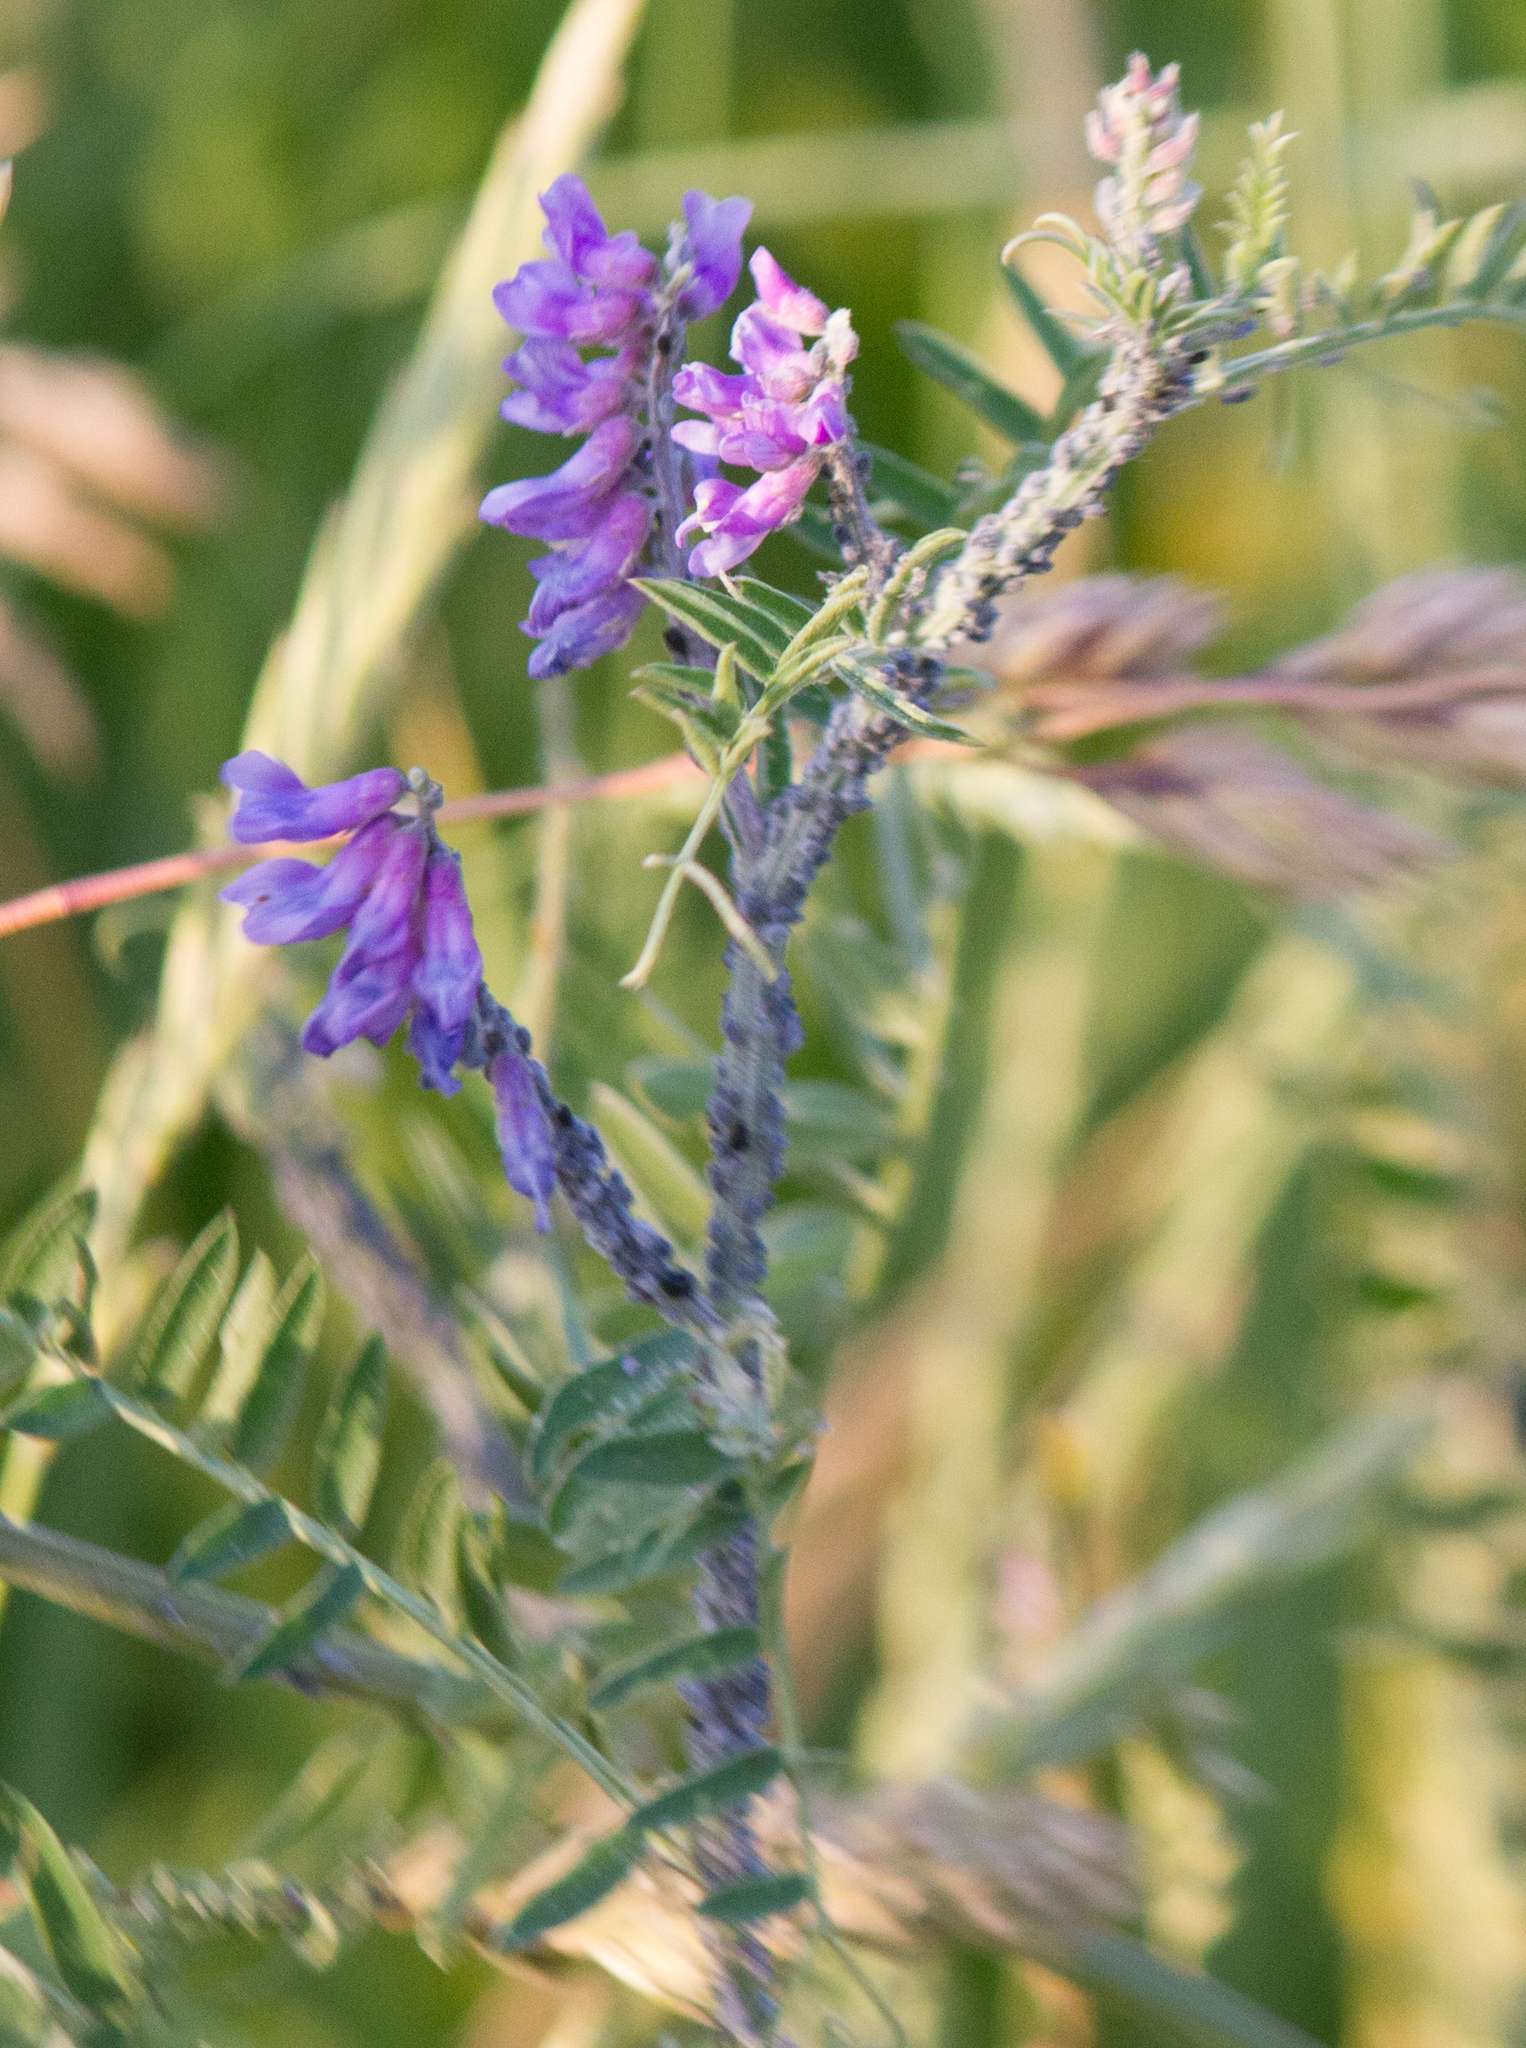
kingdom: Plantae
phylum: Tracheophyta
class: Magnoliopsida
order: Fabales
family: Fabaceae
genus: Vicia
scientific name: Vicia cracca
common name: Bird vetch
